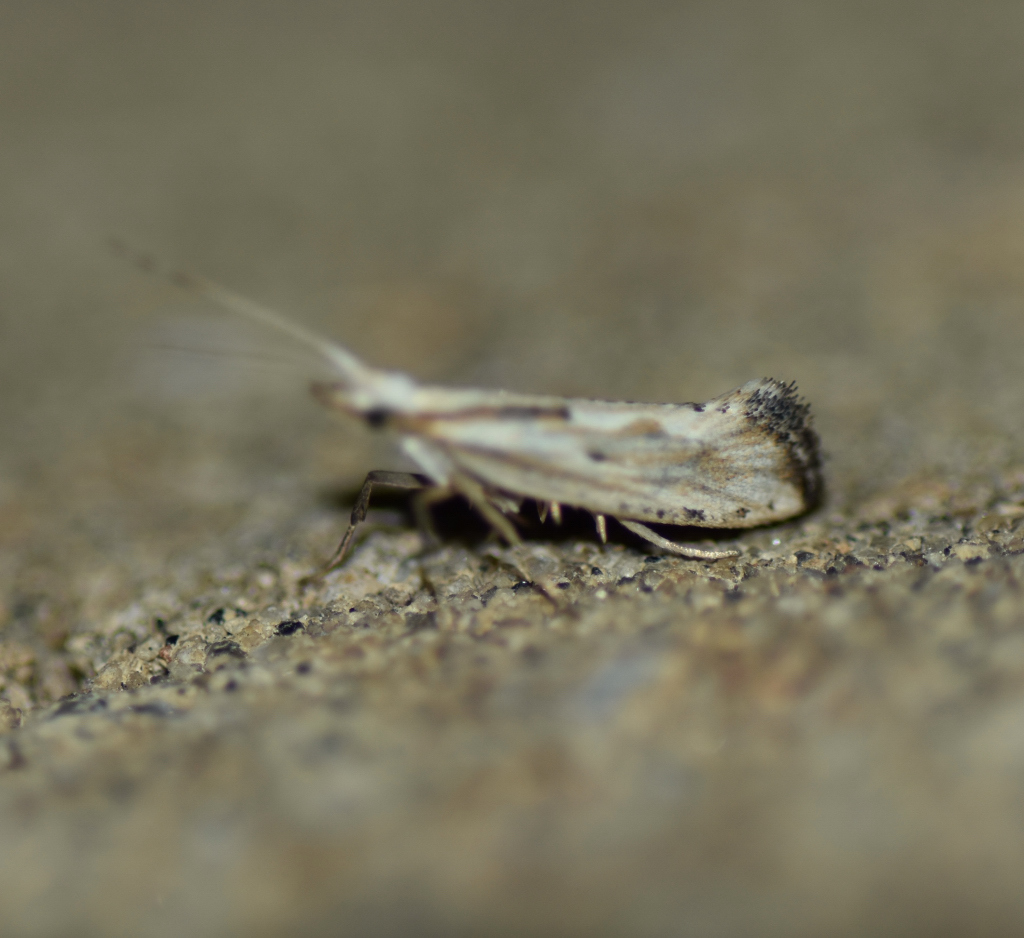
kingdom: Animalia
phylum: Arthropoda
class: Insecta
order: Lepidoptera
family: Plutellidae
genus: Plutella
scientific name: Plutella porrectella
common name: Dame's rocket moth
